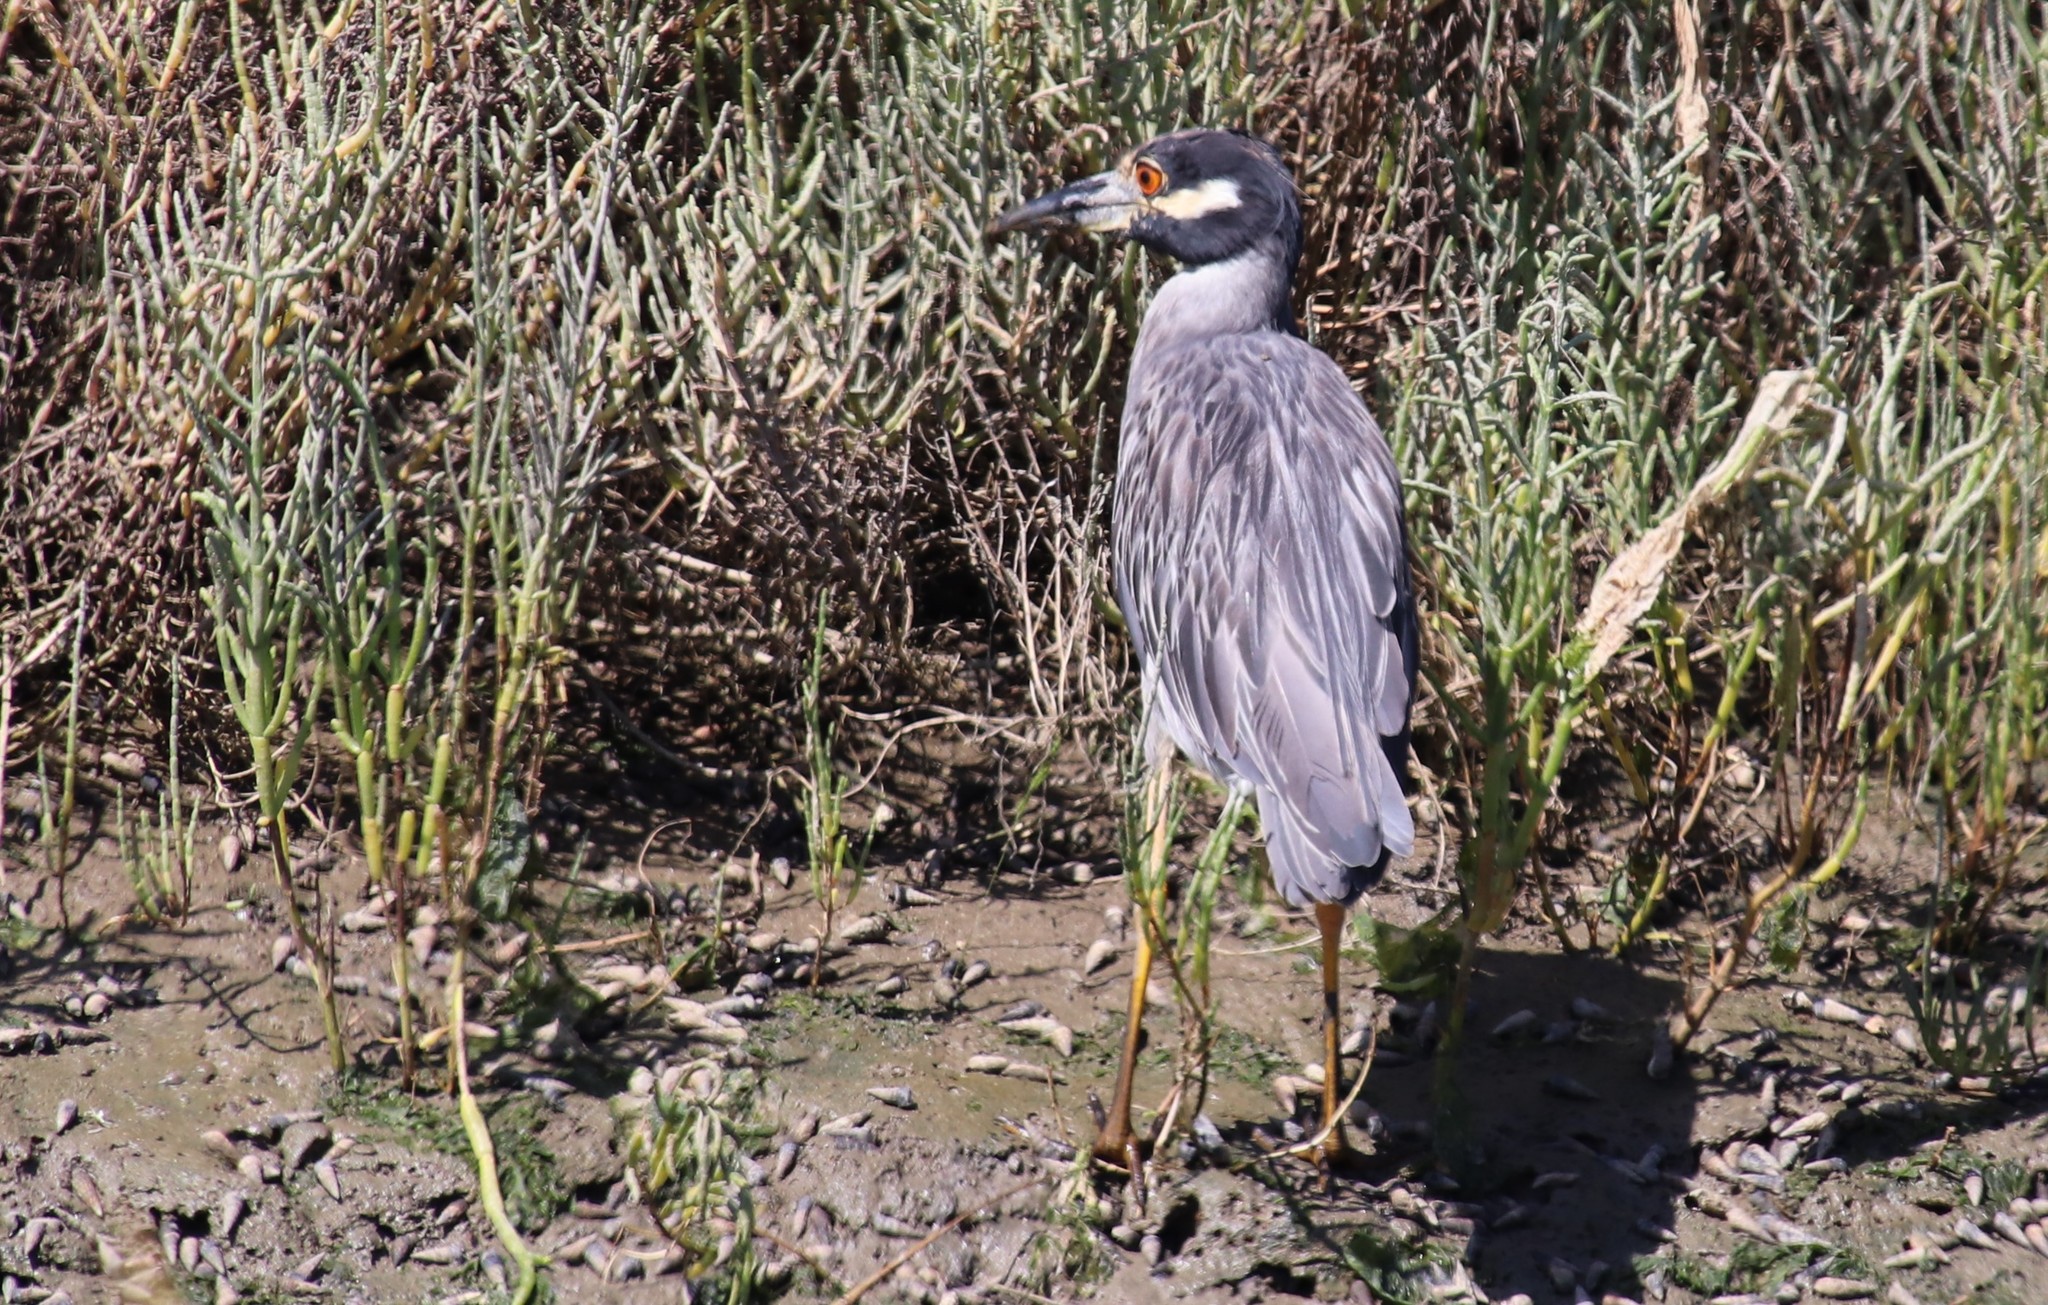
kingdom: Animalia
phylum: Chordata
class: Aves
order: Pelecaniformes
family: Ardeidae
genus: Nyctanassa
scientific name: Nyctanassa violacea
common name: Yellow-crowned night heron
